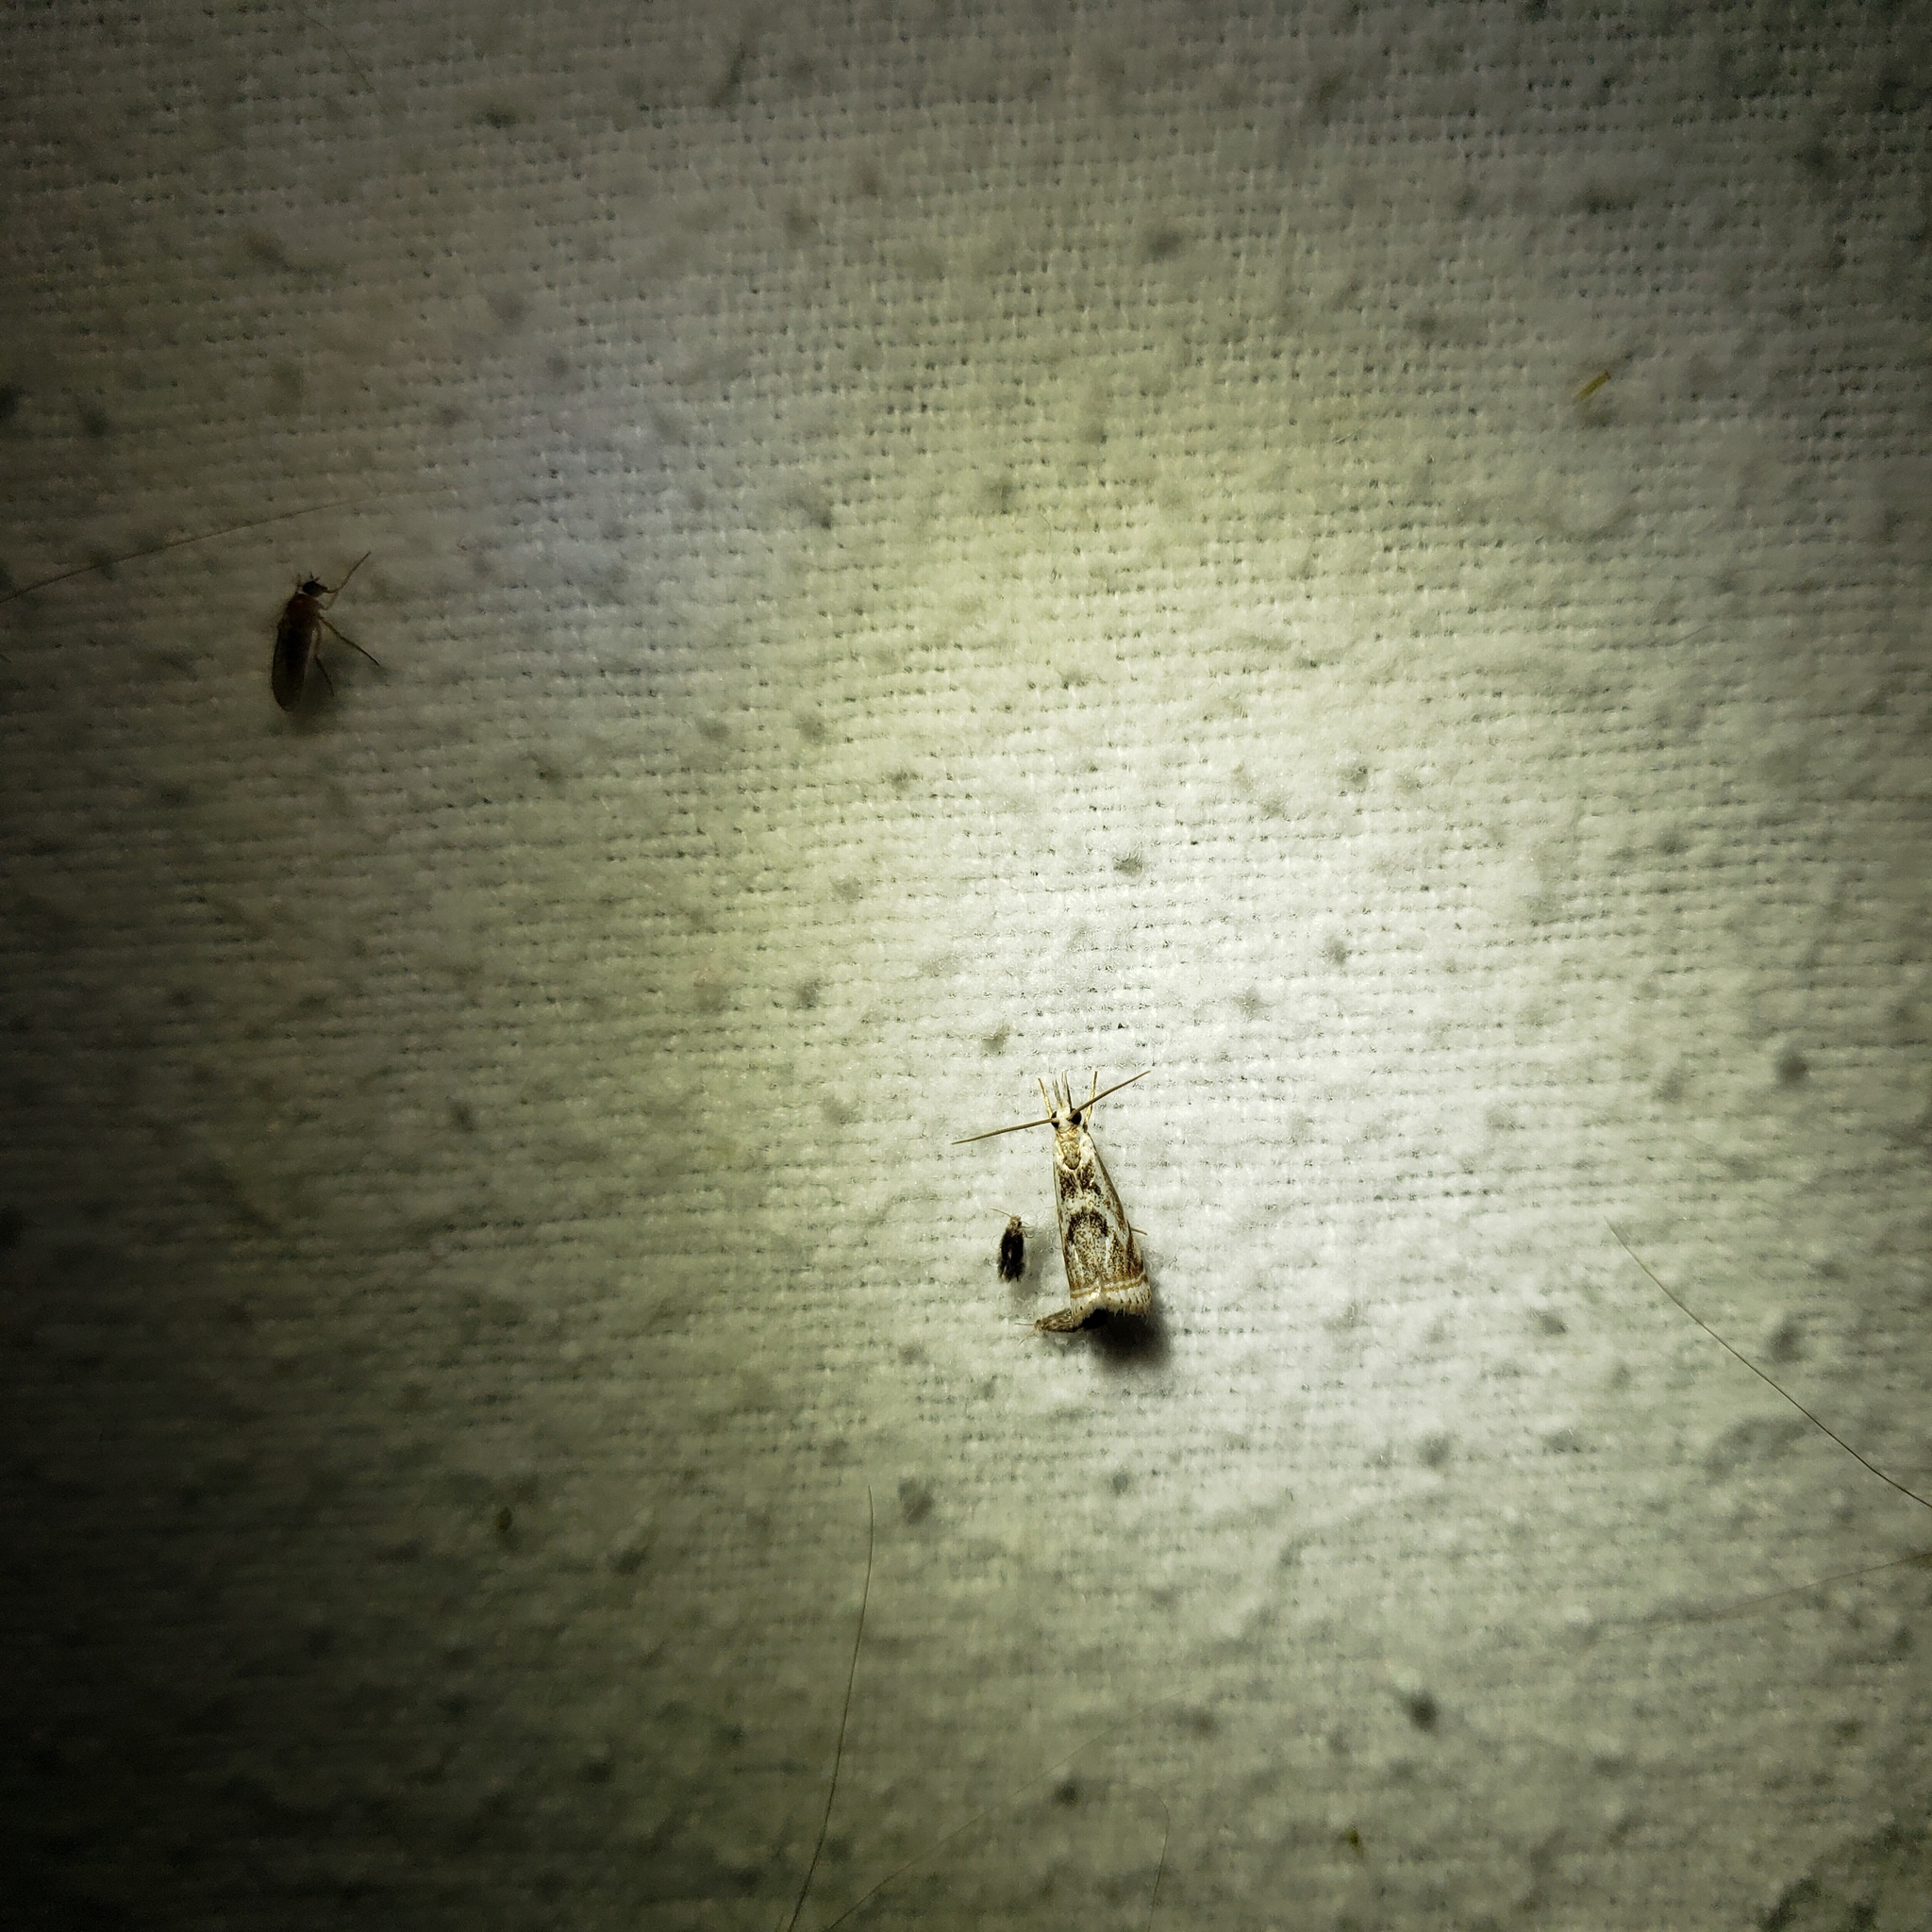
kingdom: Animalia
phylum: Arthropoda
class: Insecta
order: Lepidoptera
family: Crambidae
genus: Microcrambus
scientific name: Microcrambus elegans
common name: Elegant grass-veneer
